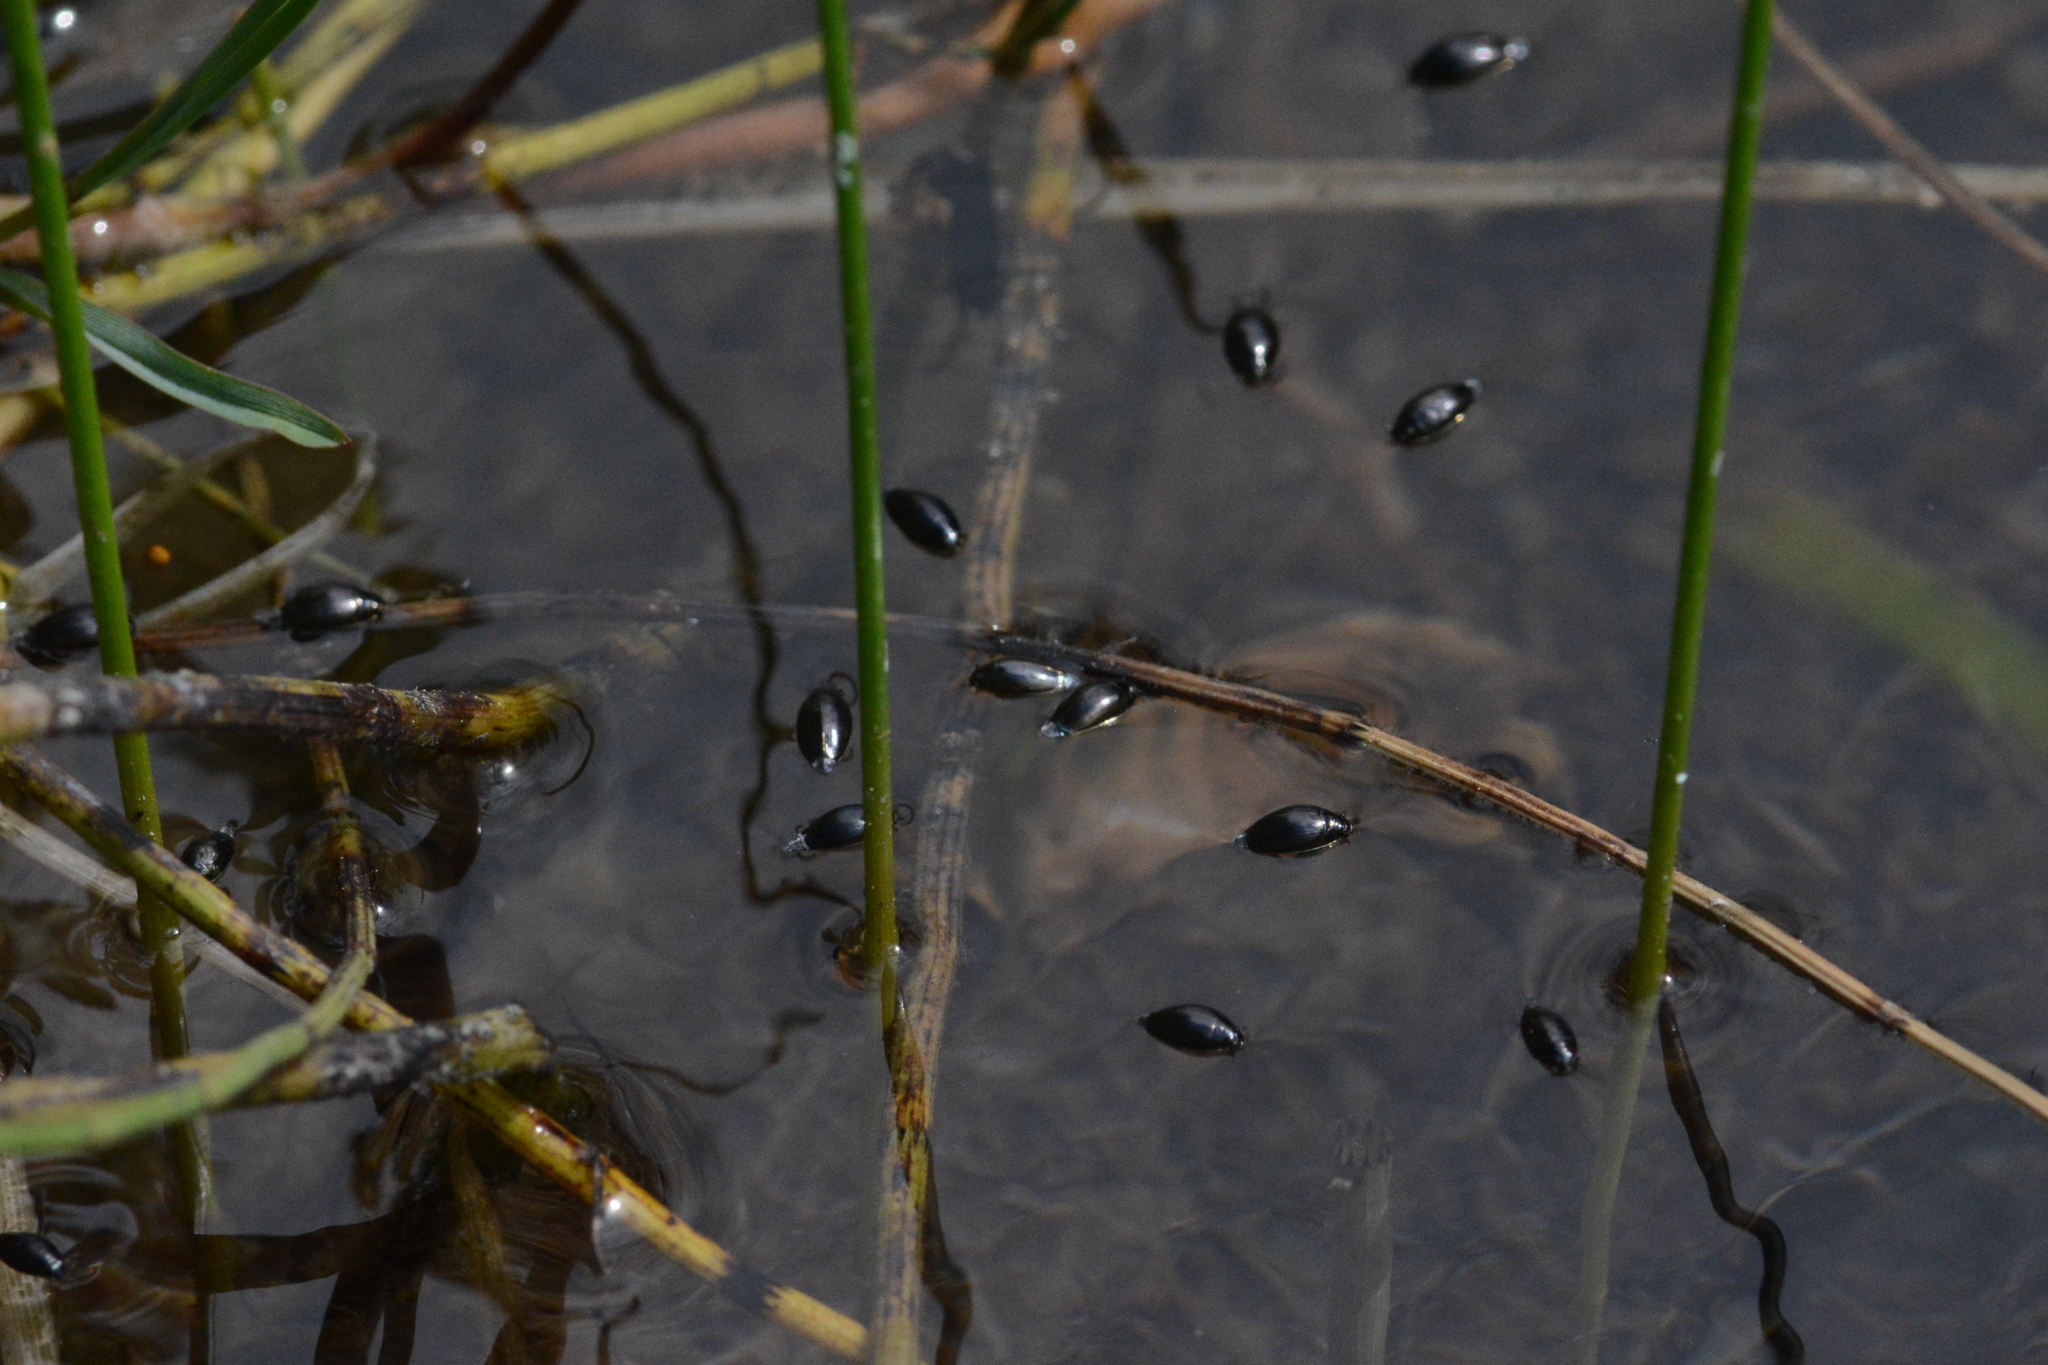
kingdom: Animalia
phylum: Arthropoda
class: Insecta
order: Coleoptera
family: Gyrinidae
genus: Gyrinus
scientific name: Gyrinus
